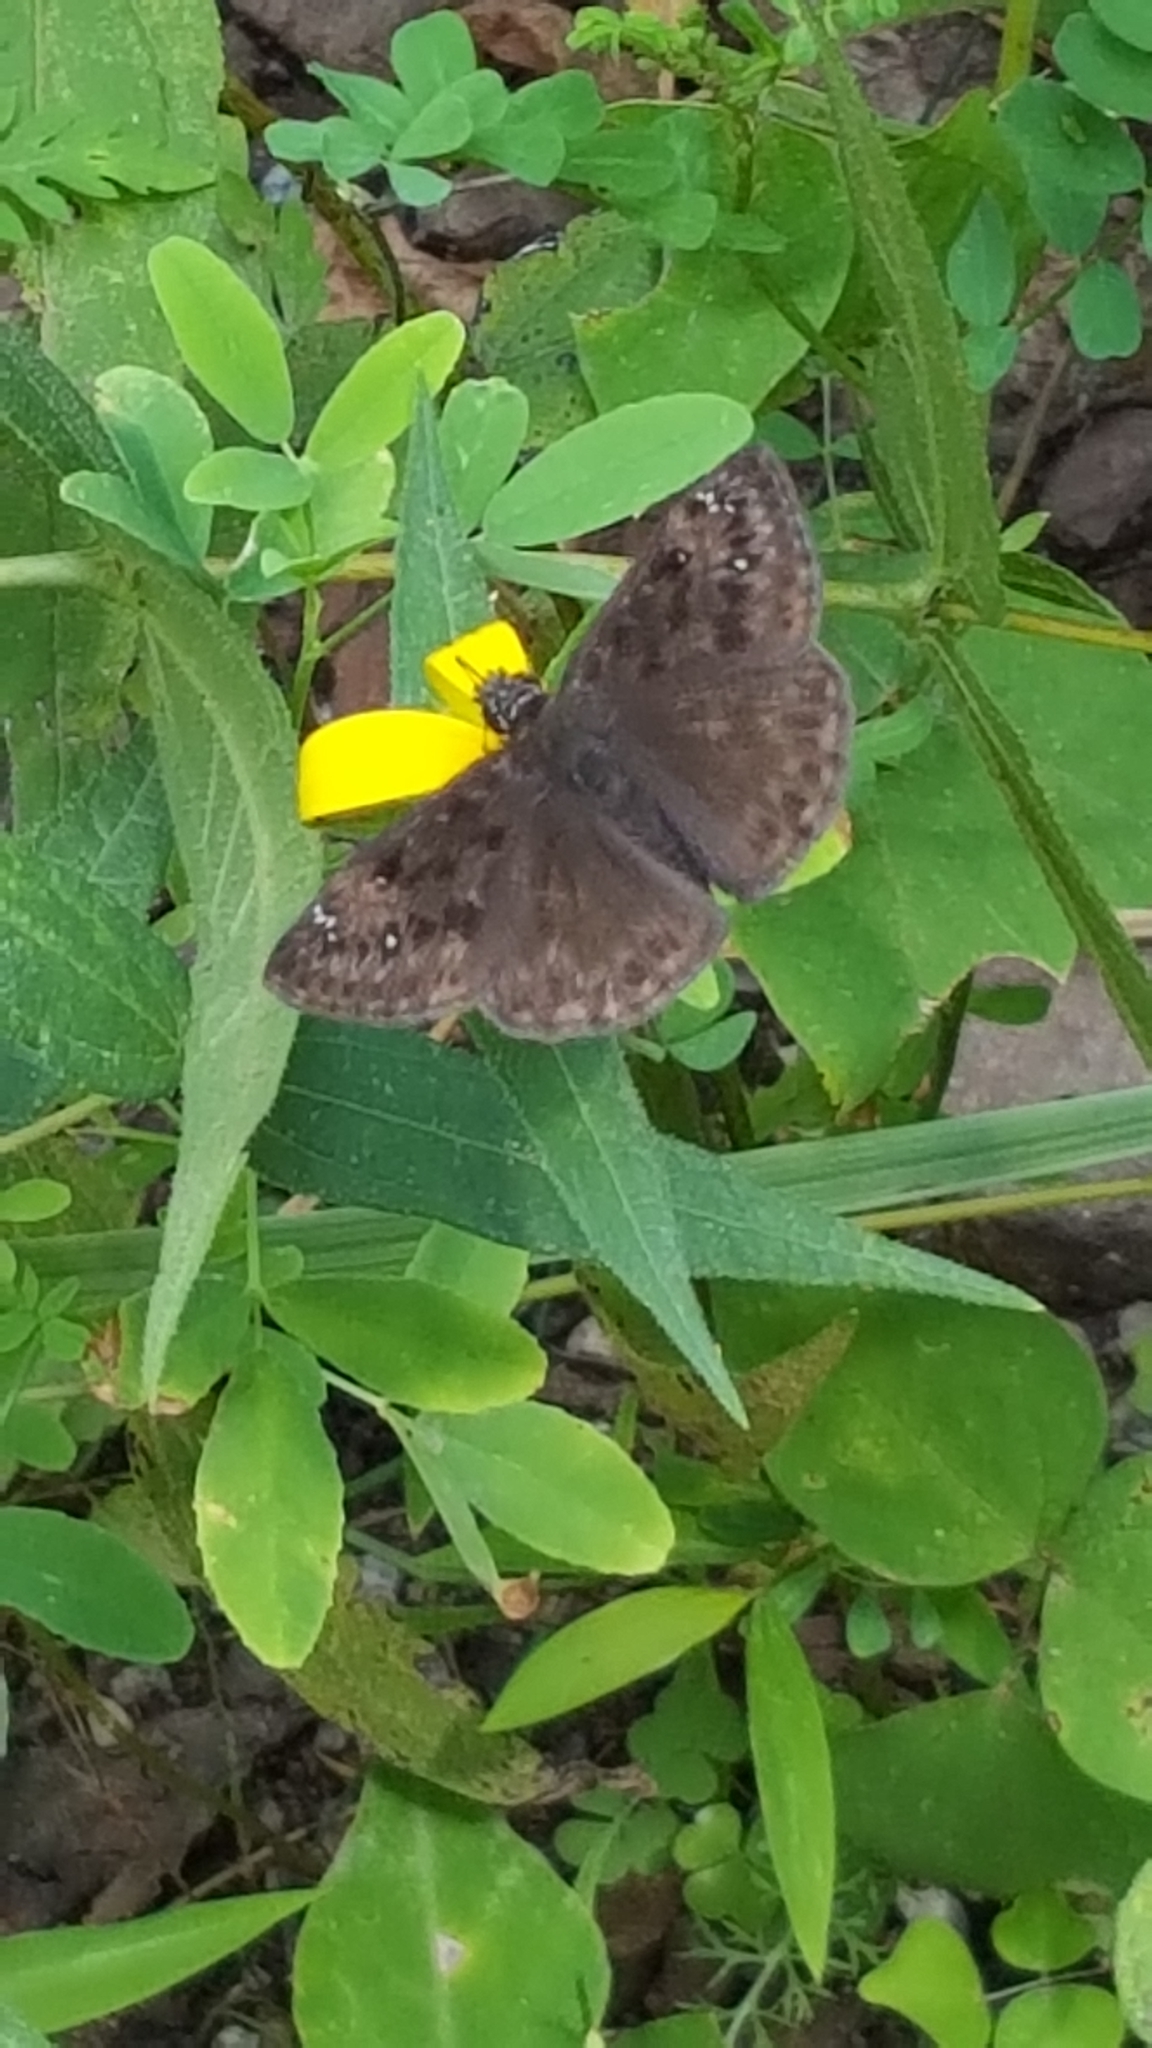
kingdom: Animalia
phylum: Arthropoda
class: Insecta
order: Lepidoptera
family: Hesperiidae
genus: Erynnis
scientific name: Erynnis horatius
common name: Horace's duskywing
